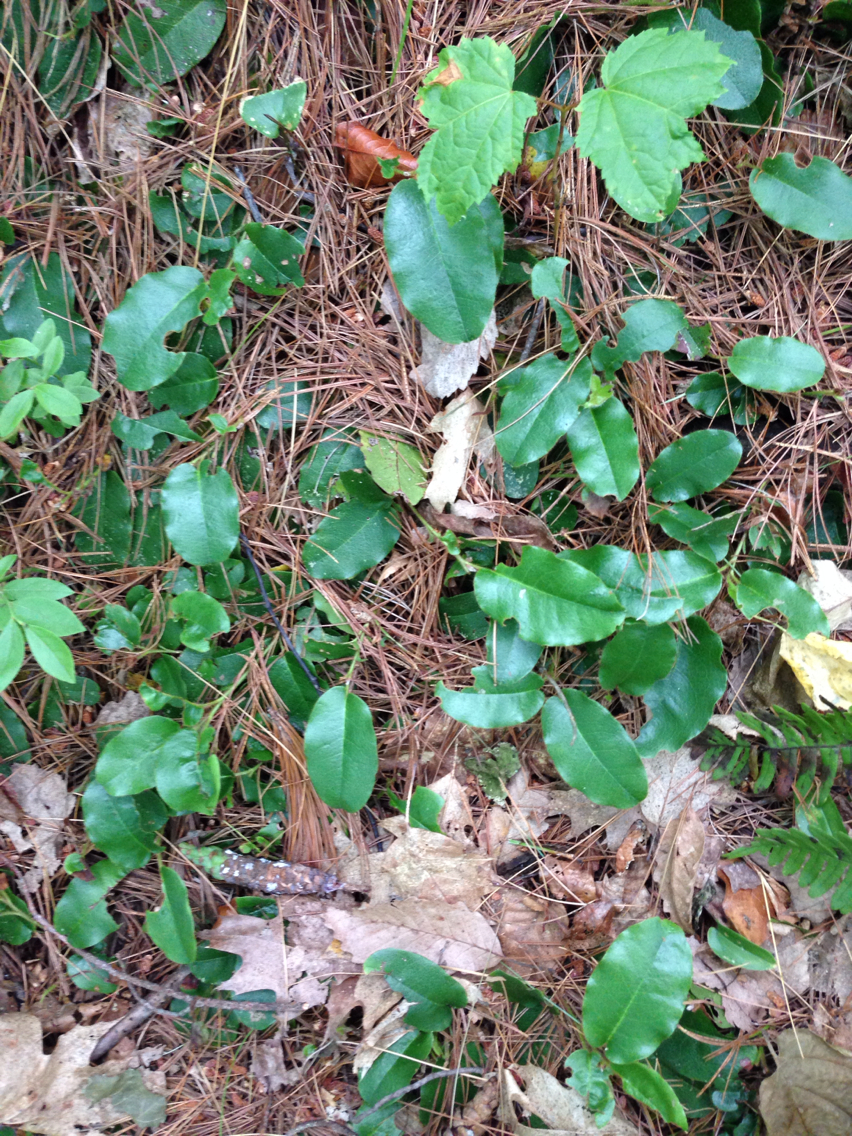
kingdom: Plantae
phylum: Tracheophyta
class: Magnoliopsida
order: Ericales
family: Ericaceae
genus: Epigaea
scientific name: Epigaea repens
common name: Gravelroot
